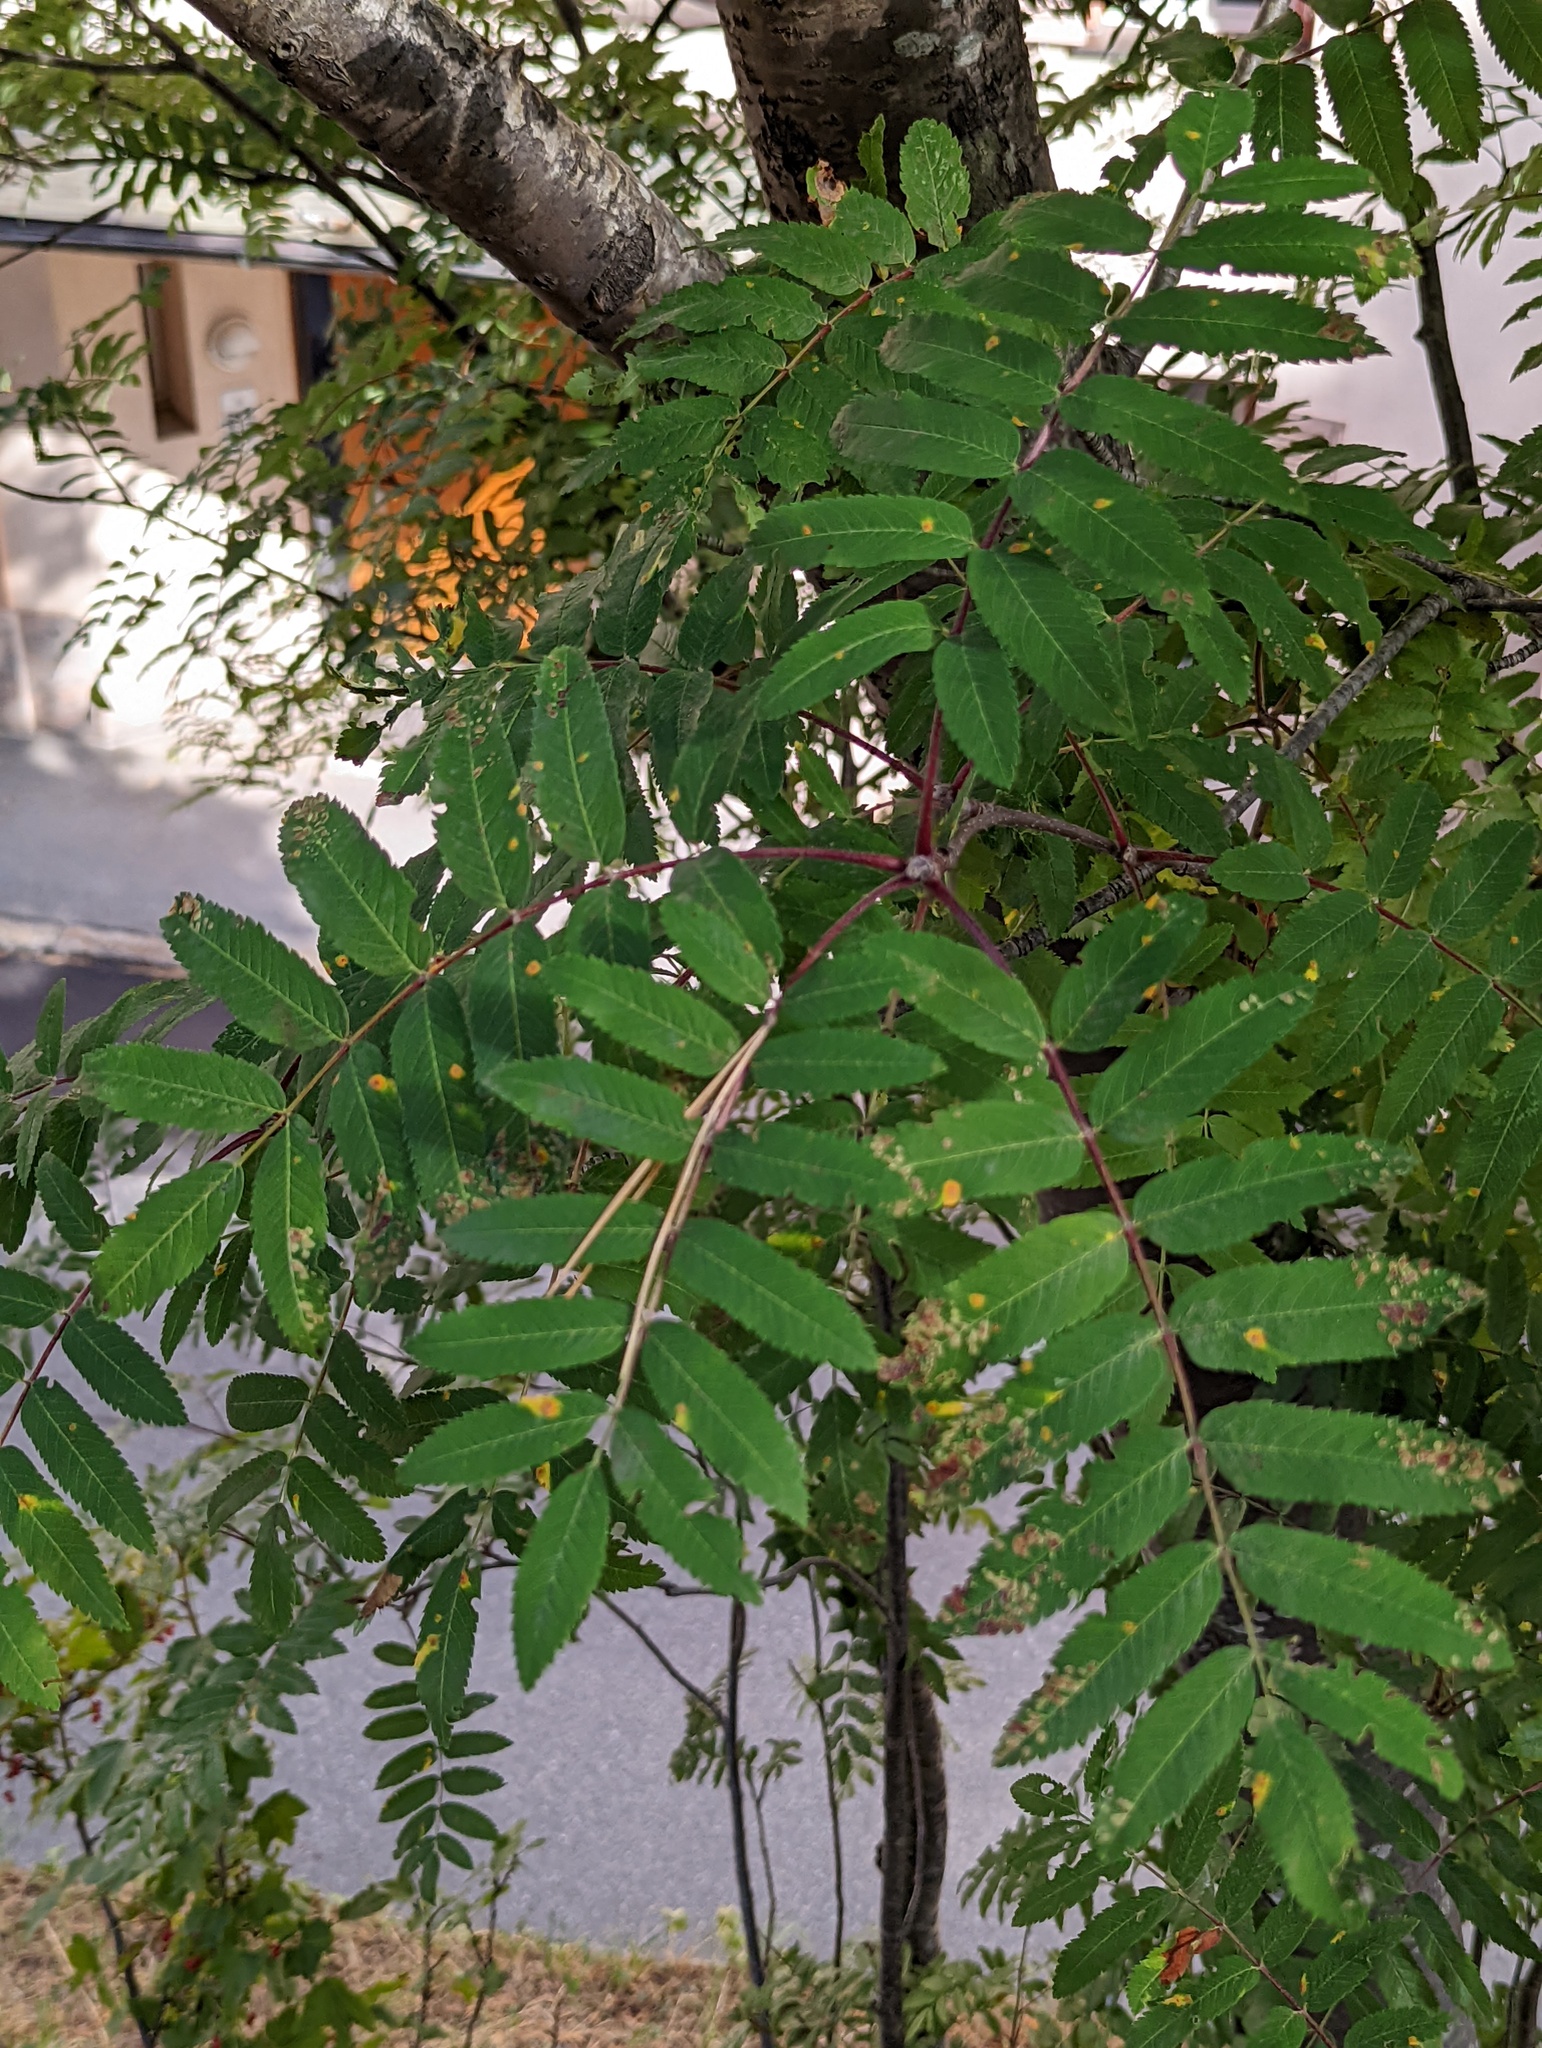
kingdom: Fungi
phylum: Basidiomycota
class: Pucciniomycetes
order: Pucciniales
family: Gymnosporangiaceae
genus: Gymnosporangium
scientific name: Gymnosporangium cornutum
